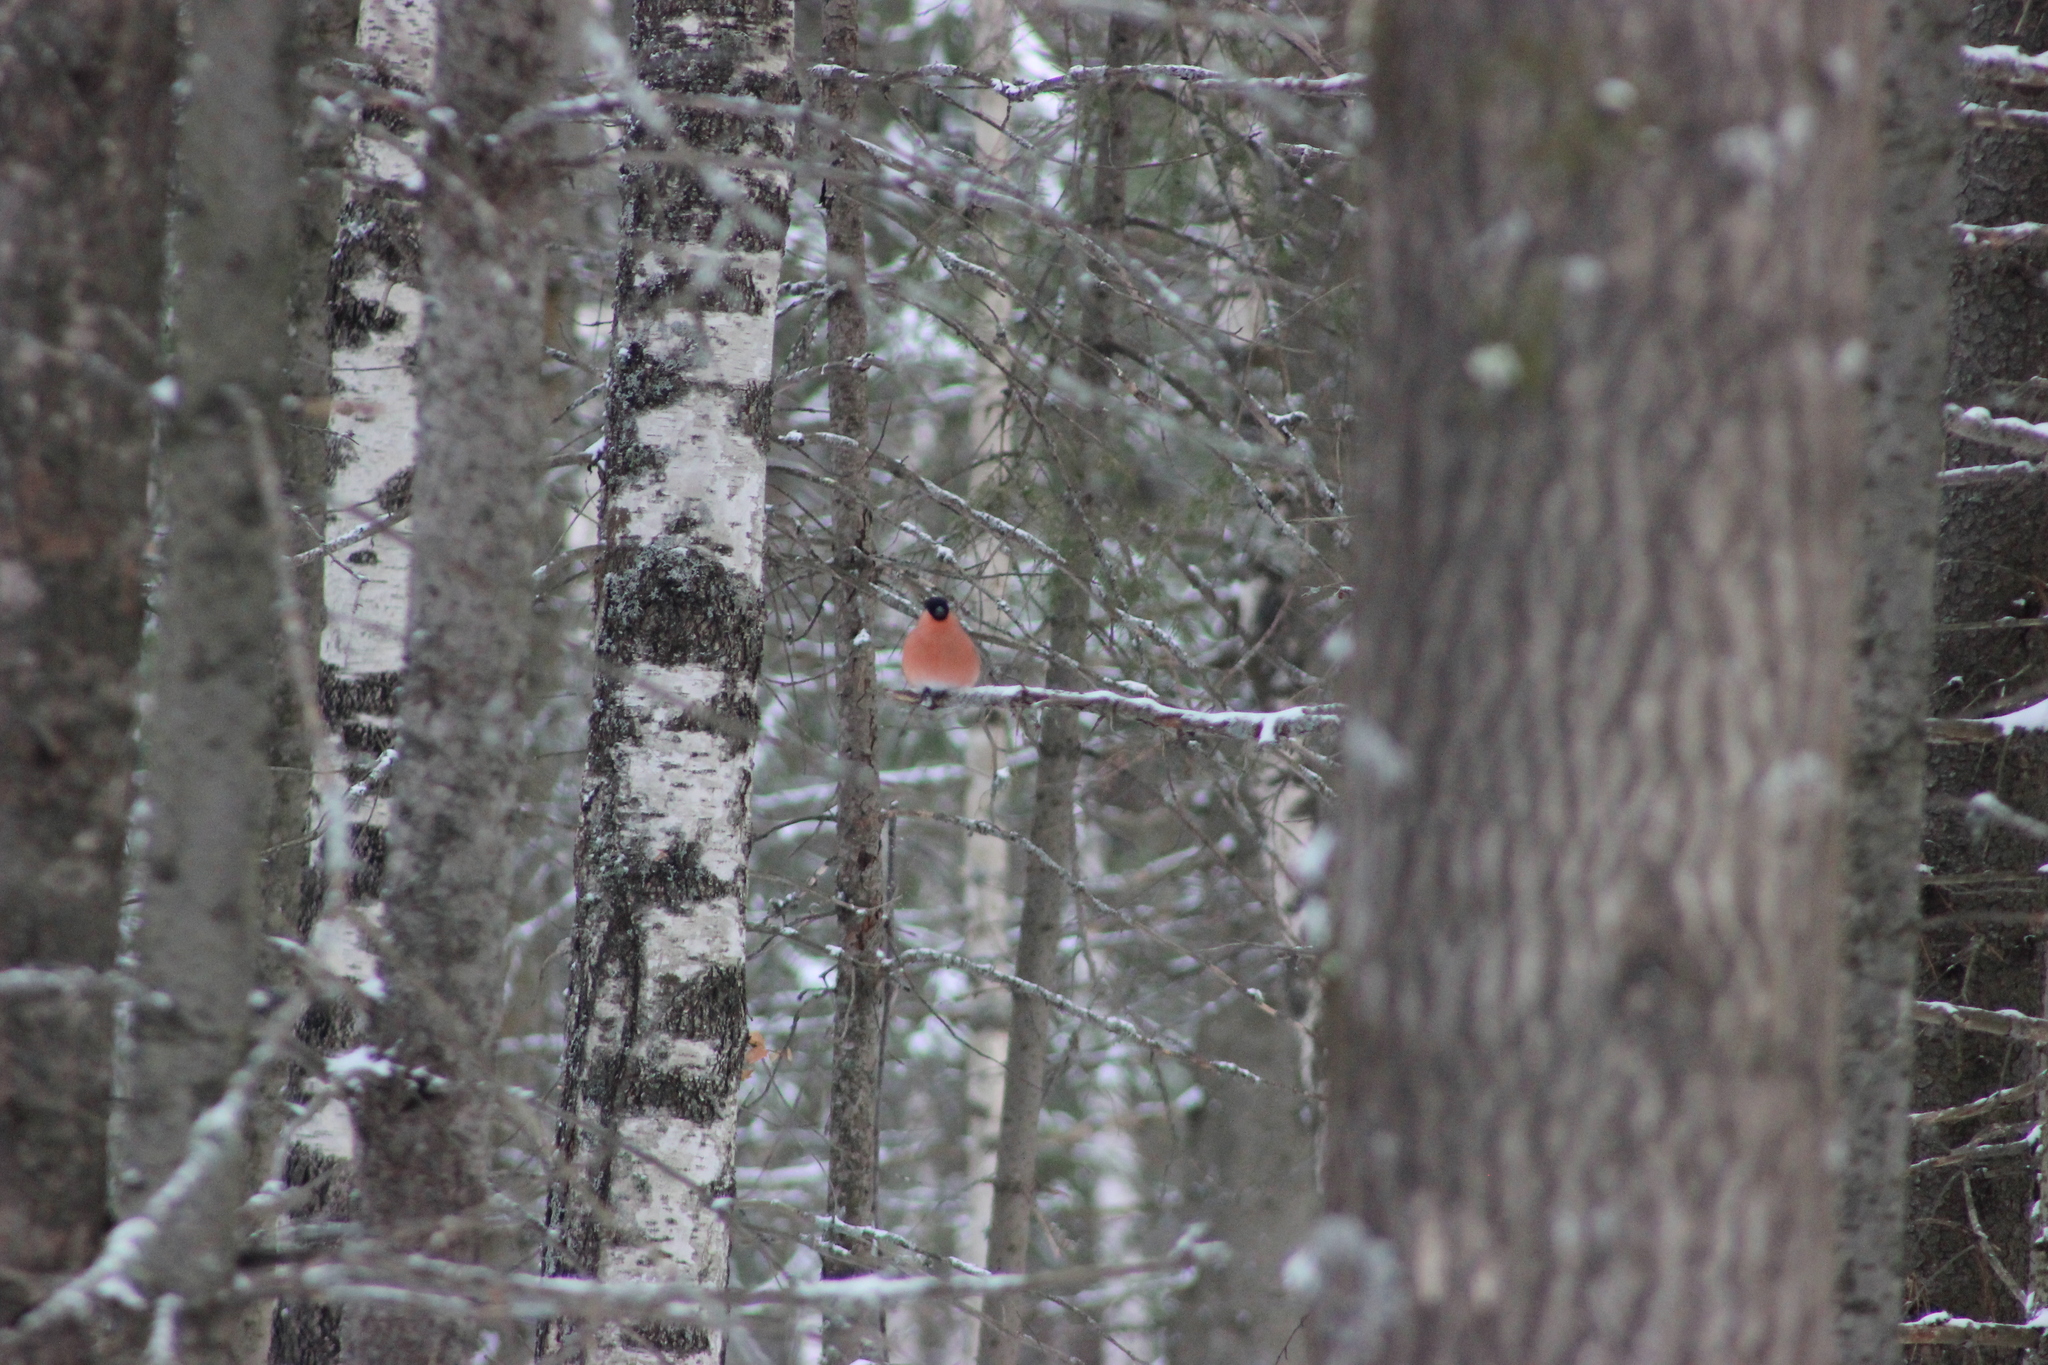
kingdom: Animalia
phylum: Chordata
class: Aves
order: Passeriformes
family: Fringillidae
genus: Pyrrhula
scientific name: Pyrrhula pyrrhula
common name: Eurasian bullfinch
